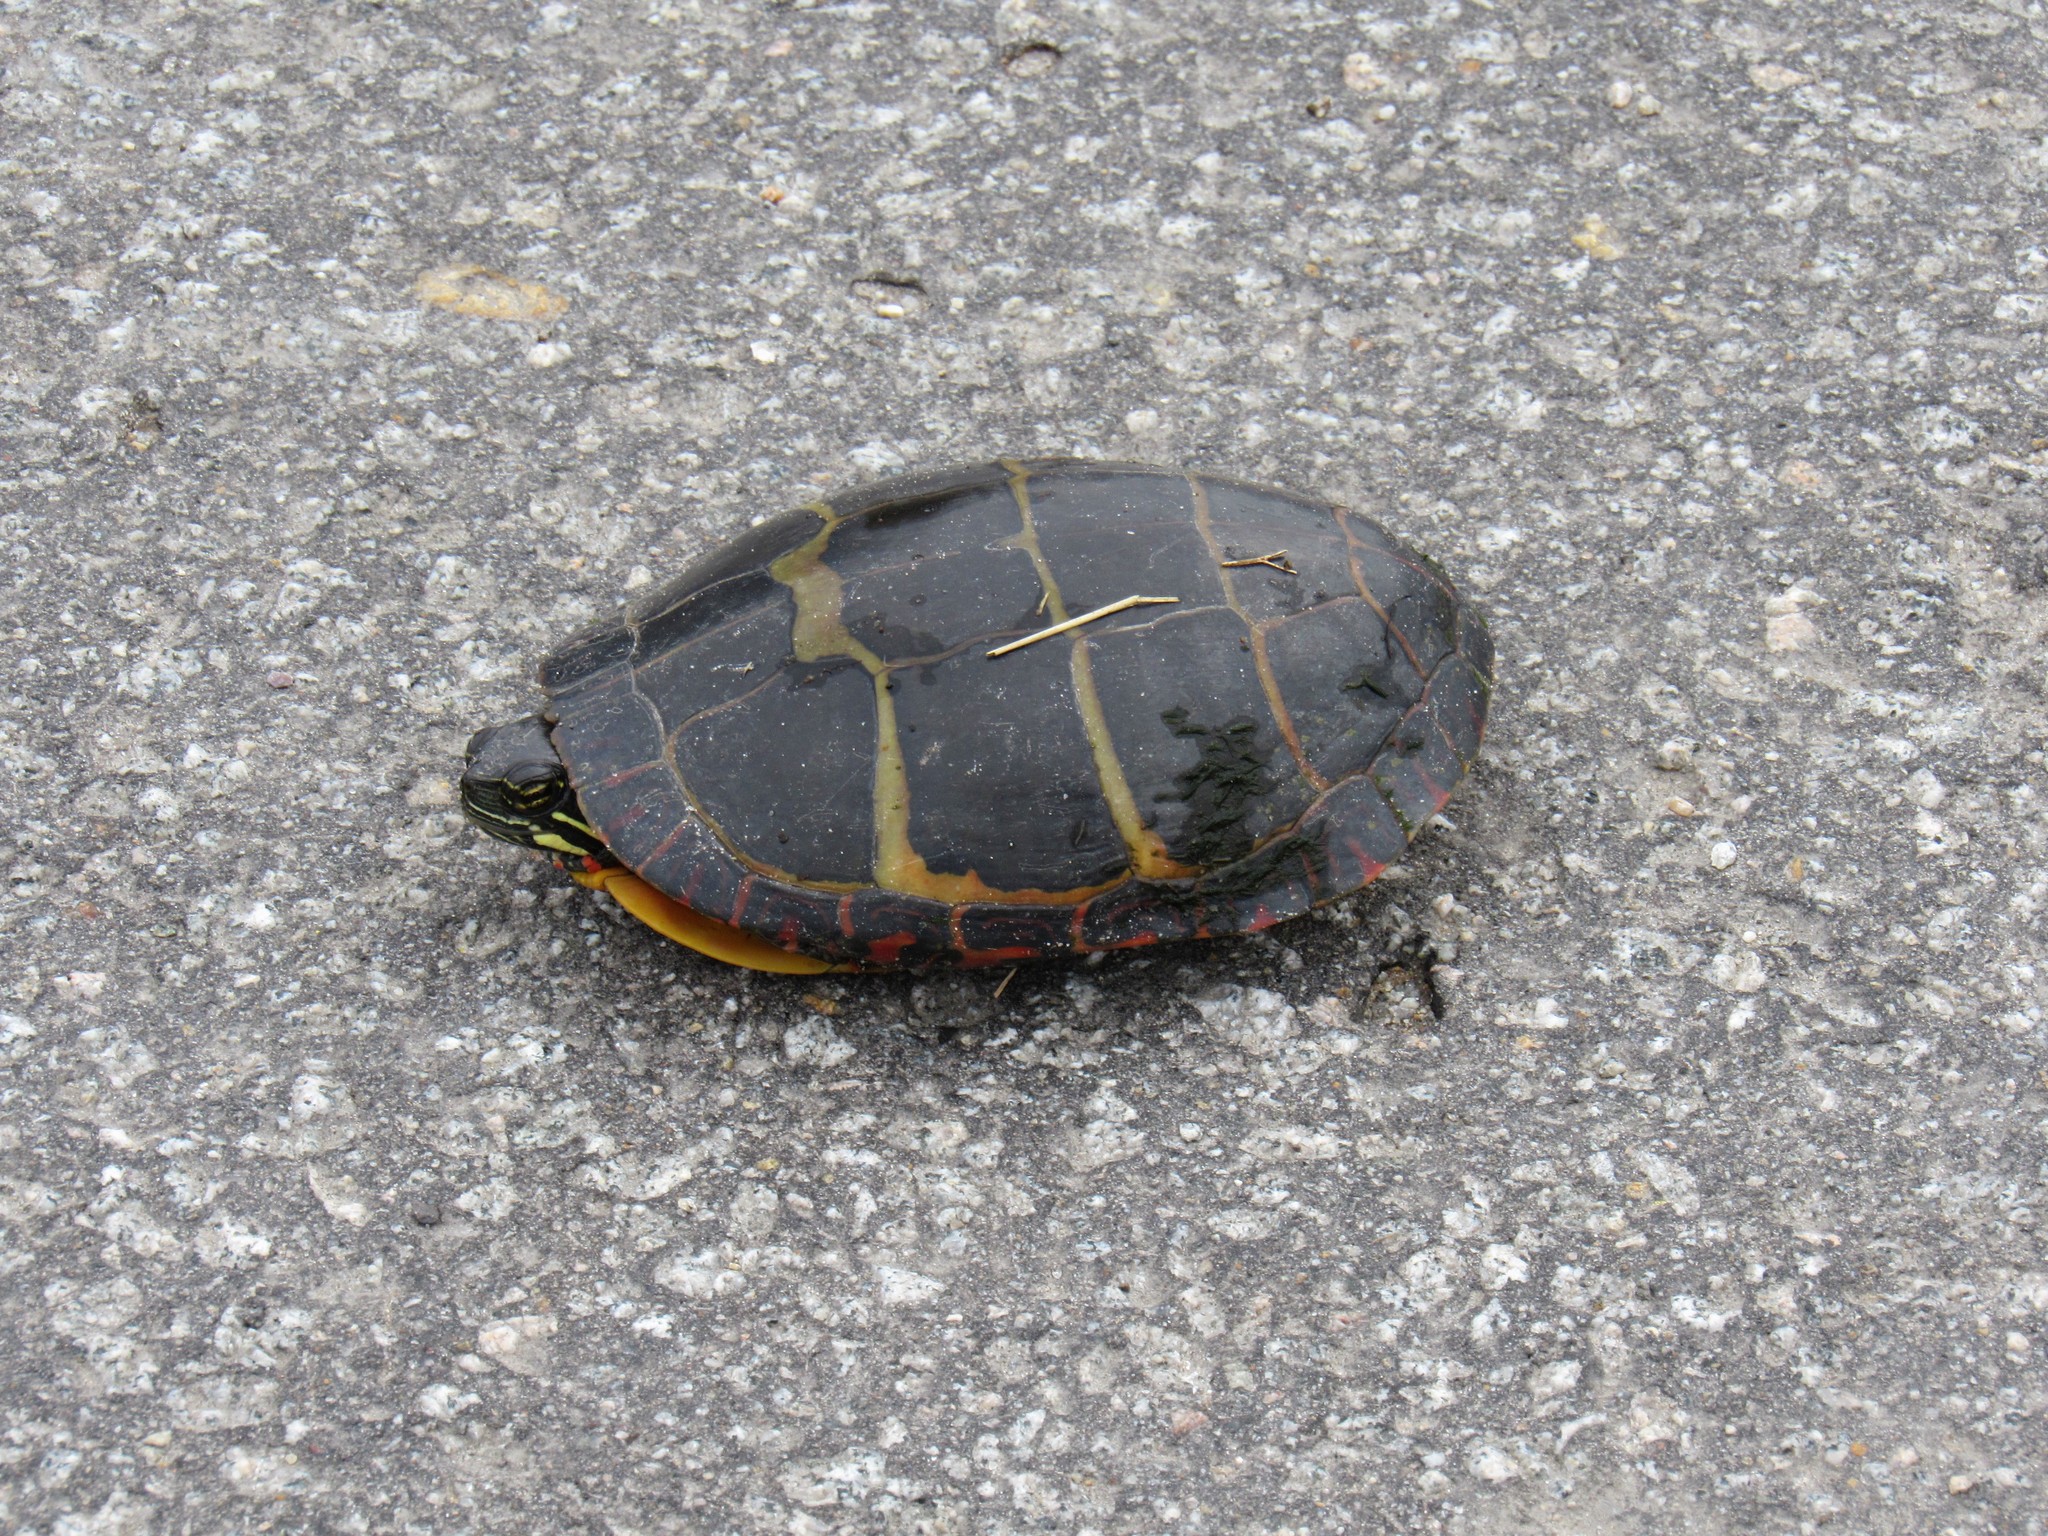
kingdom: Animalia
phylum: Chordata
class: Testudines
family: Emydidae
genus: Chrysemys
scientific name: Chrysemys picta
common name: Painted turtle
